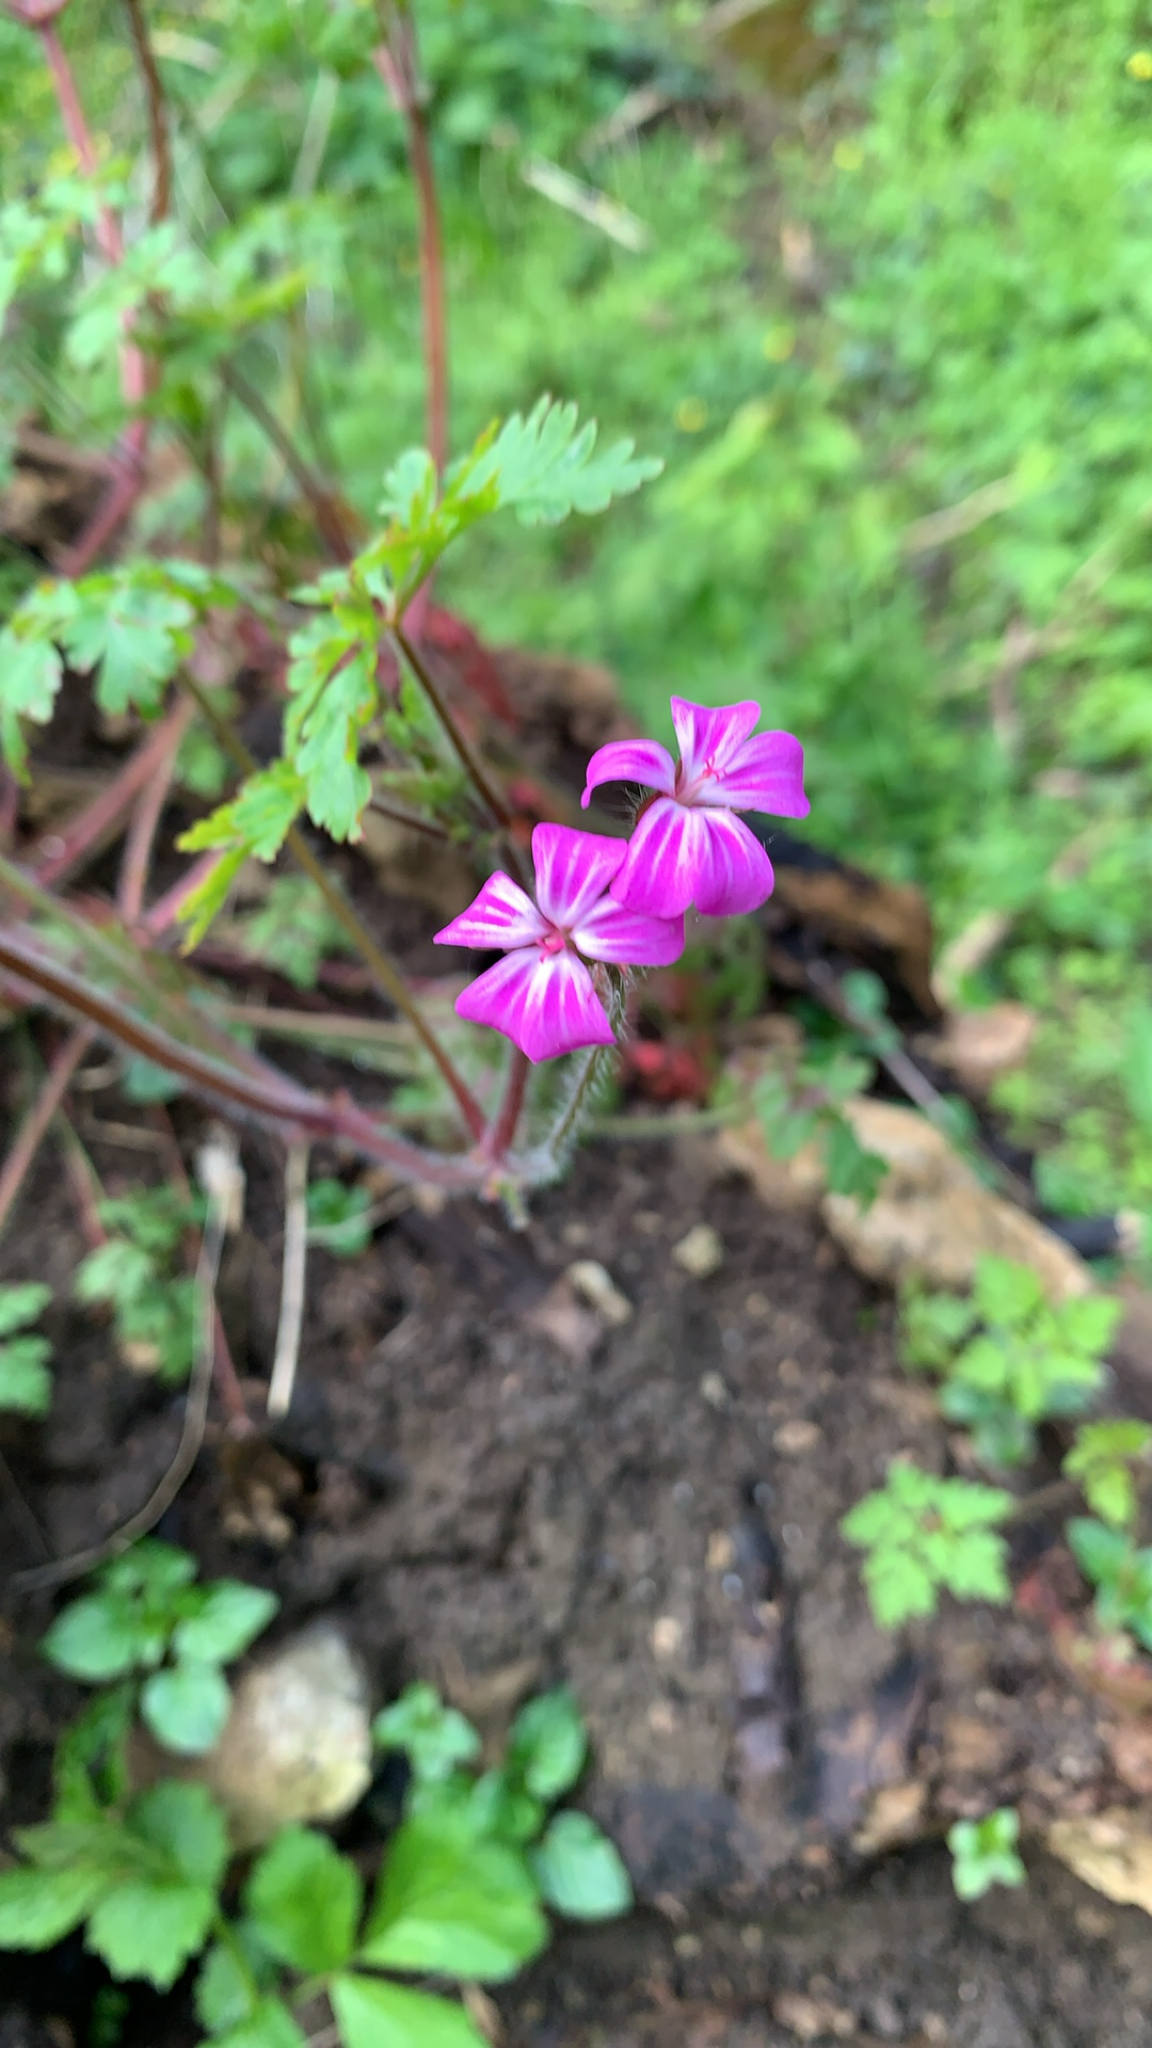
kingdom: Plantae
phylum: Tracheophyta
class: Magnoliopsida
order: Geraniales
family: Geraniaceae
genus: Geranium
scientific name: Geranium robertianum
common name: Herb-robert
